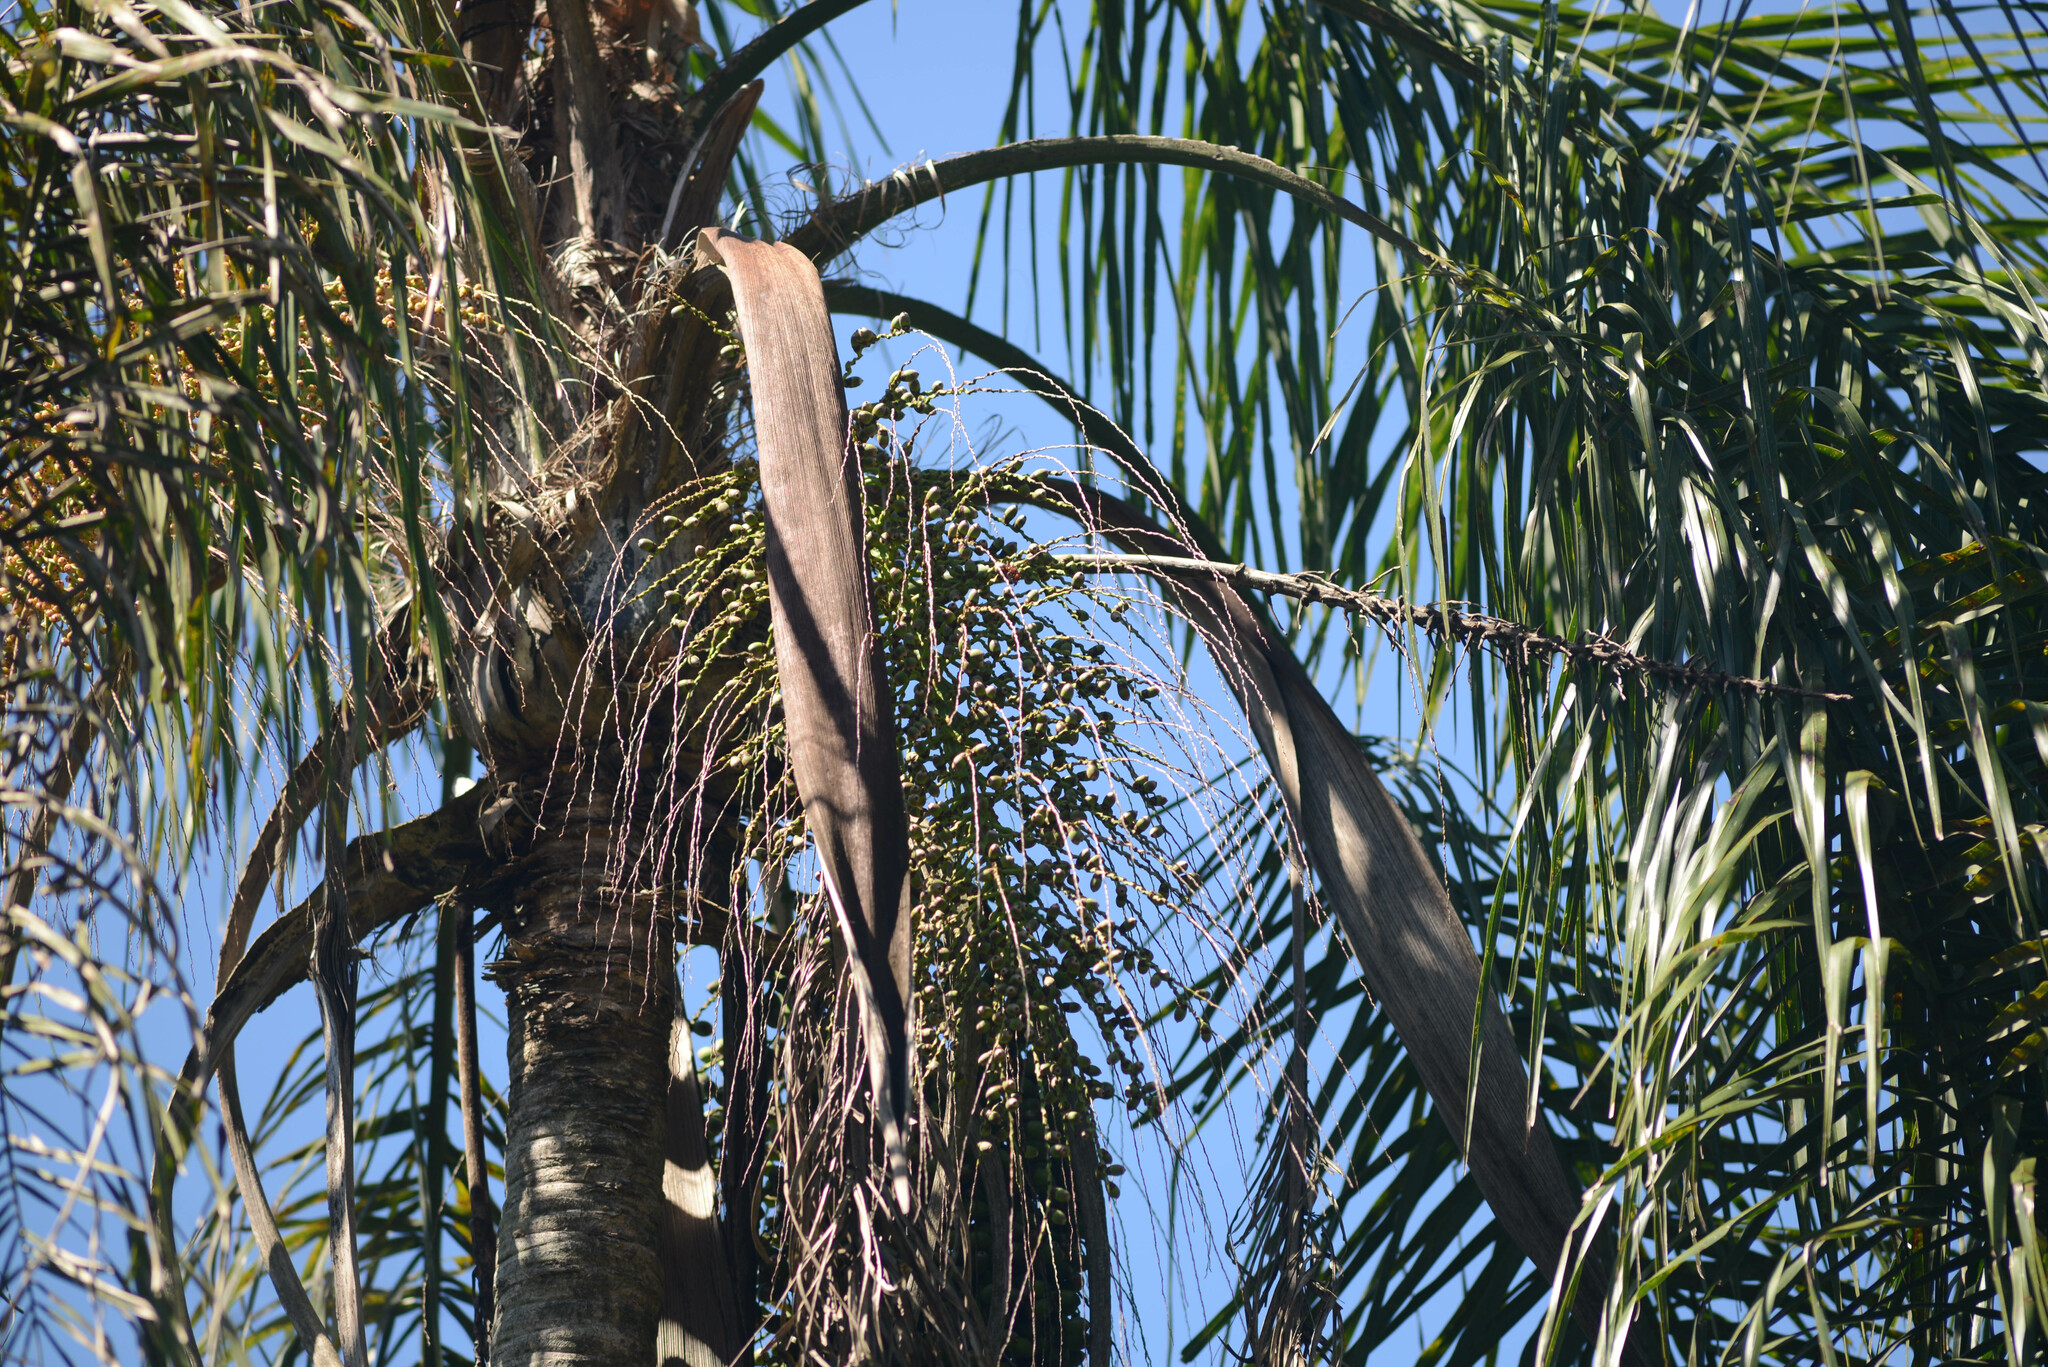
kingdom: Plantae
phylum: Tracheophyta
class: Liliopsida
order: Arecales
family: Arecaceae
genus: Syagrus
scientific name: Syagrus romanzoffiana
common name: Queen palm
